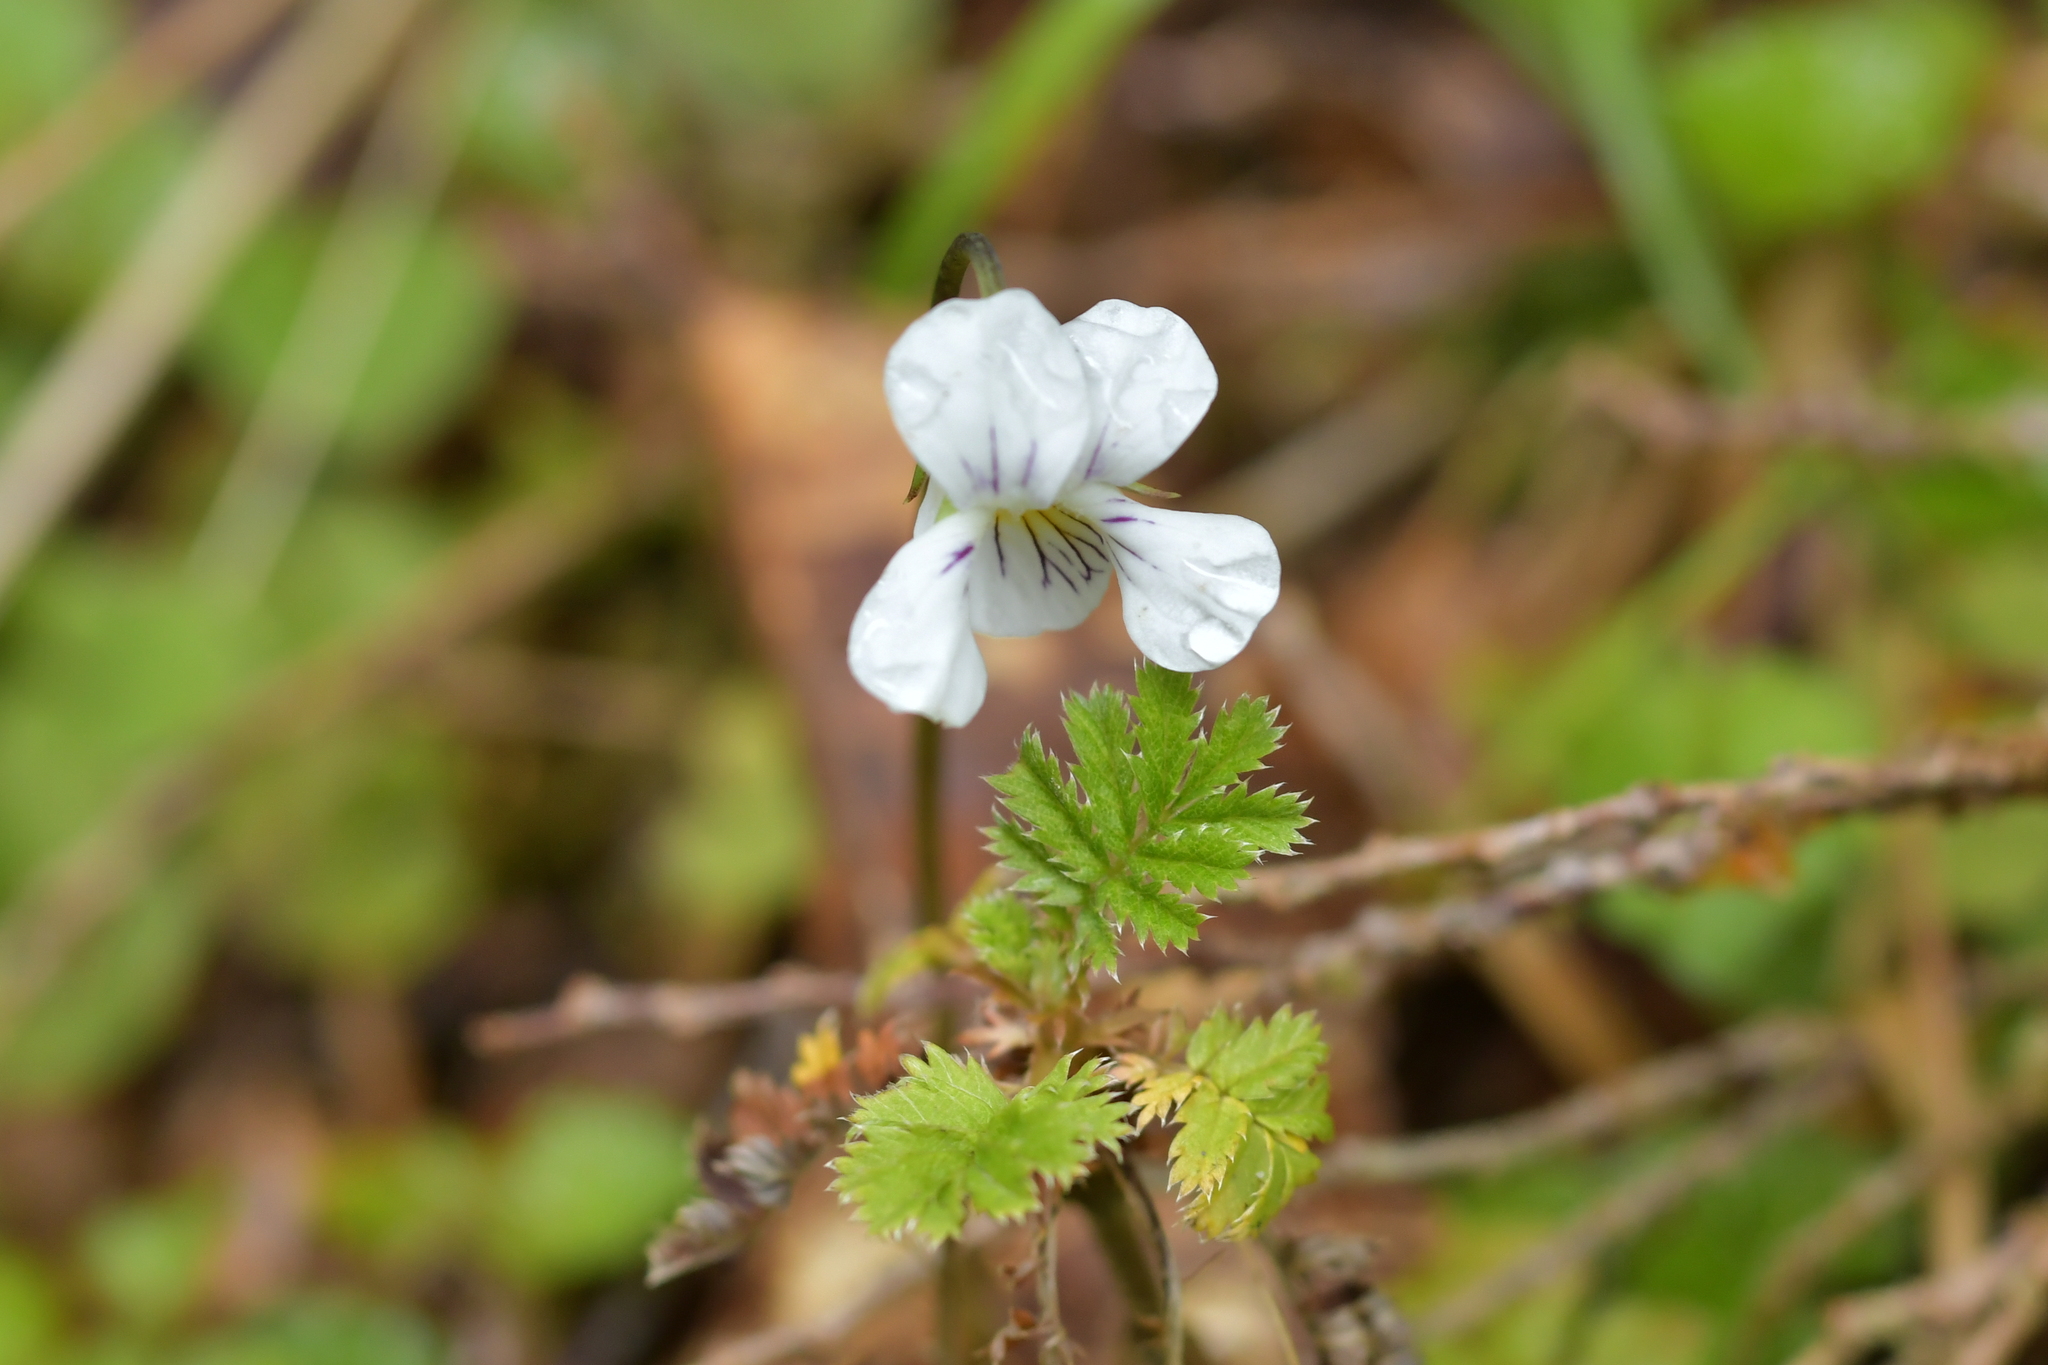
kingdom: Plantae
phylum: Tracheophyta
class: Magnoliopsida
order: Malpighiales
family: Violaceae
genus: Viola
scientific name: Viola filicaulis
